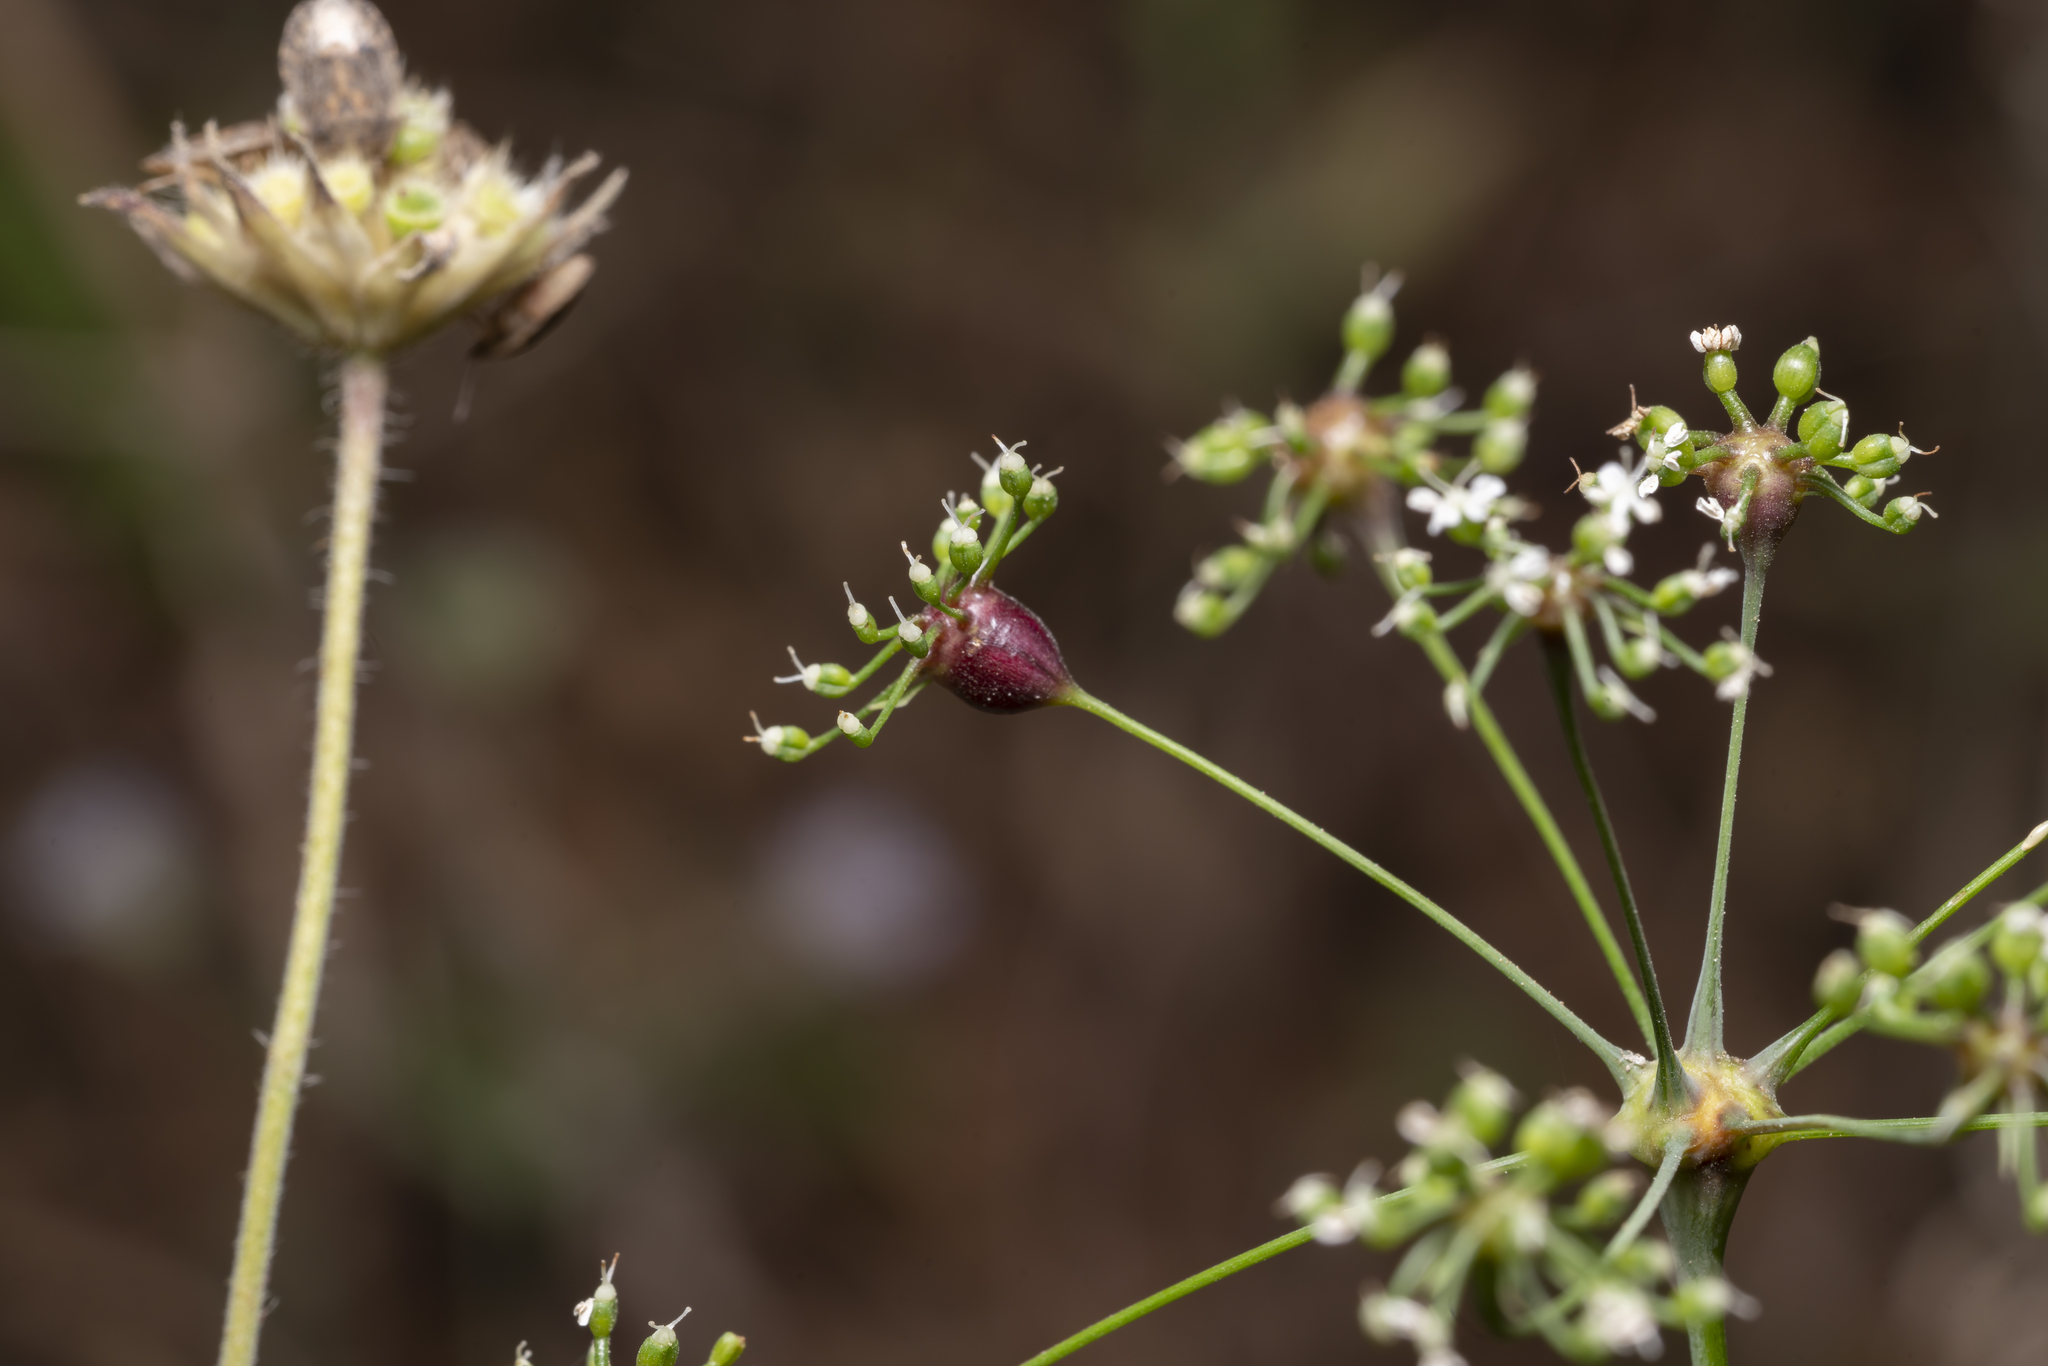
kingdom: Plantae
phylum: Tracheophyta
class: Magnoliopsida
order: Apiales
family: Apiaceae
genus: Scaligeria
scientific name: Scaligeria napiformis
